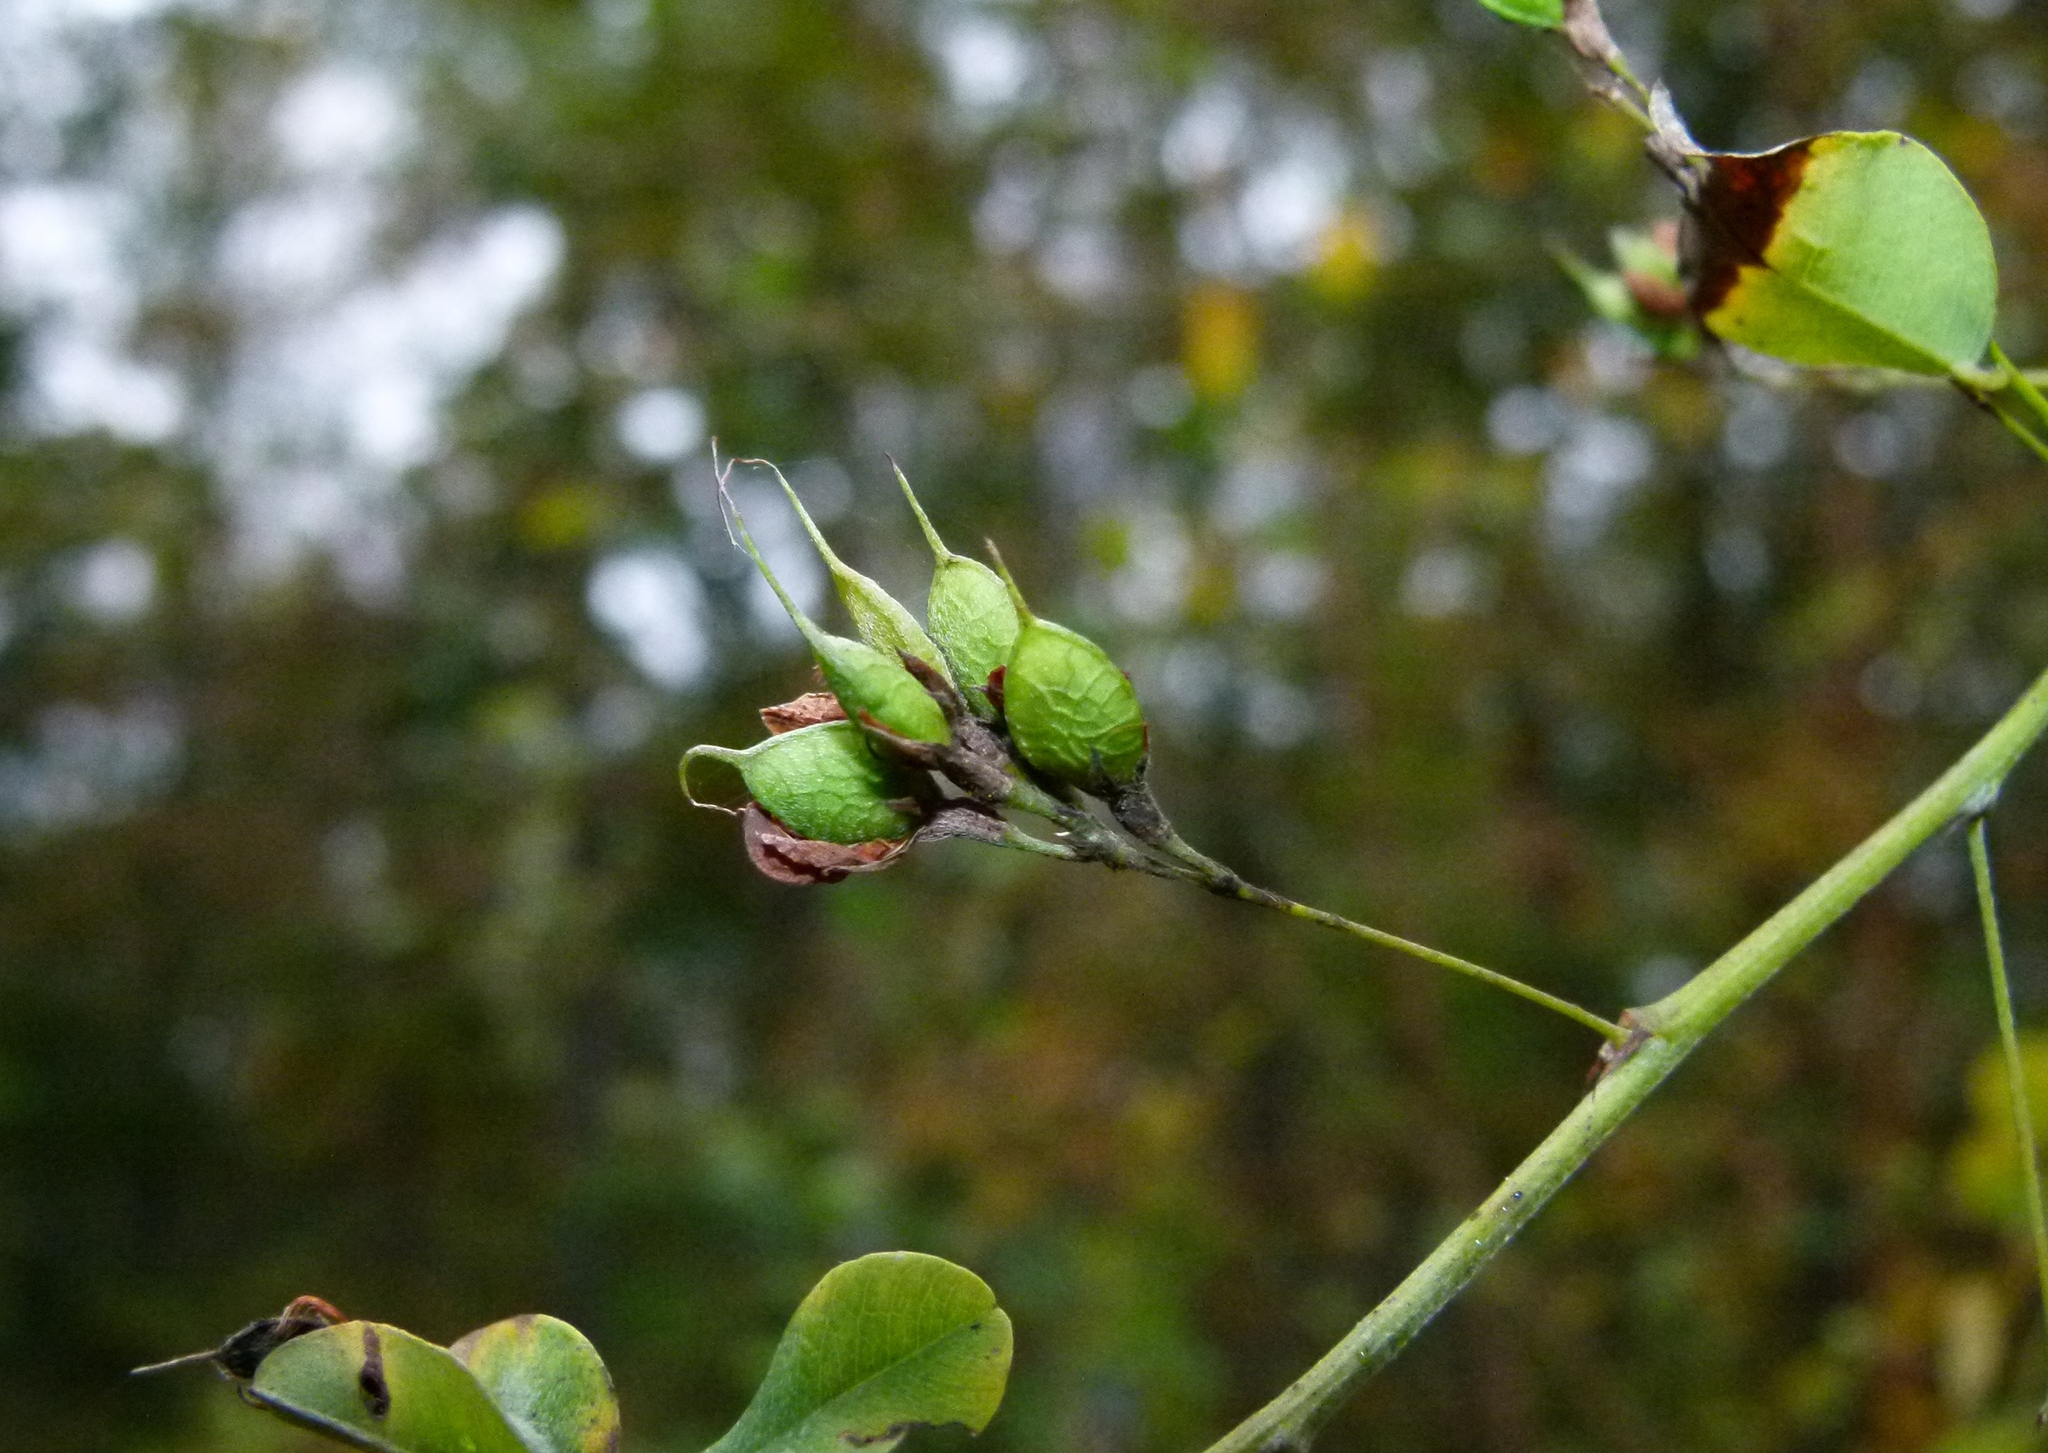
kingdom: Plantae
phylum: Tracheophyta
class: Magnoliopsida
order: Fabales
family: Fabaceae
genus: Lespedeza
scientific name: Lespedeza bicolor
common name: Shrub lespedeza
